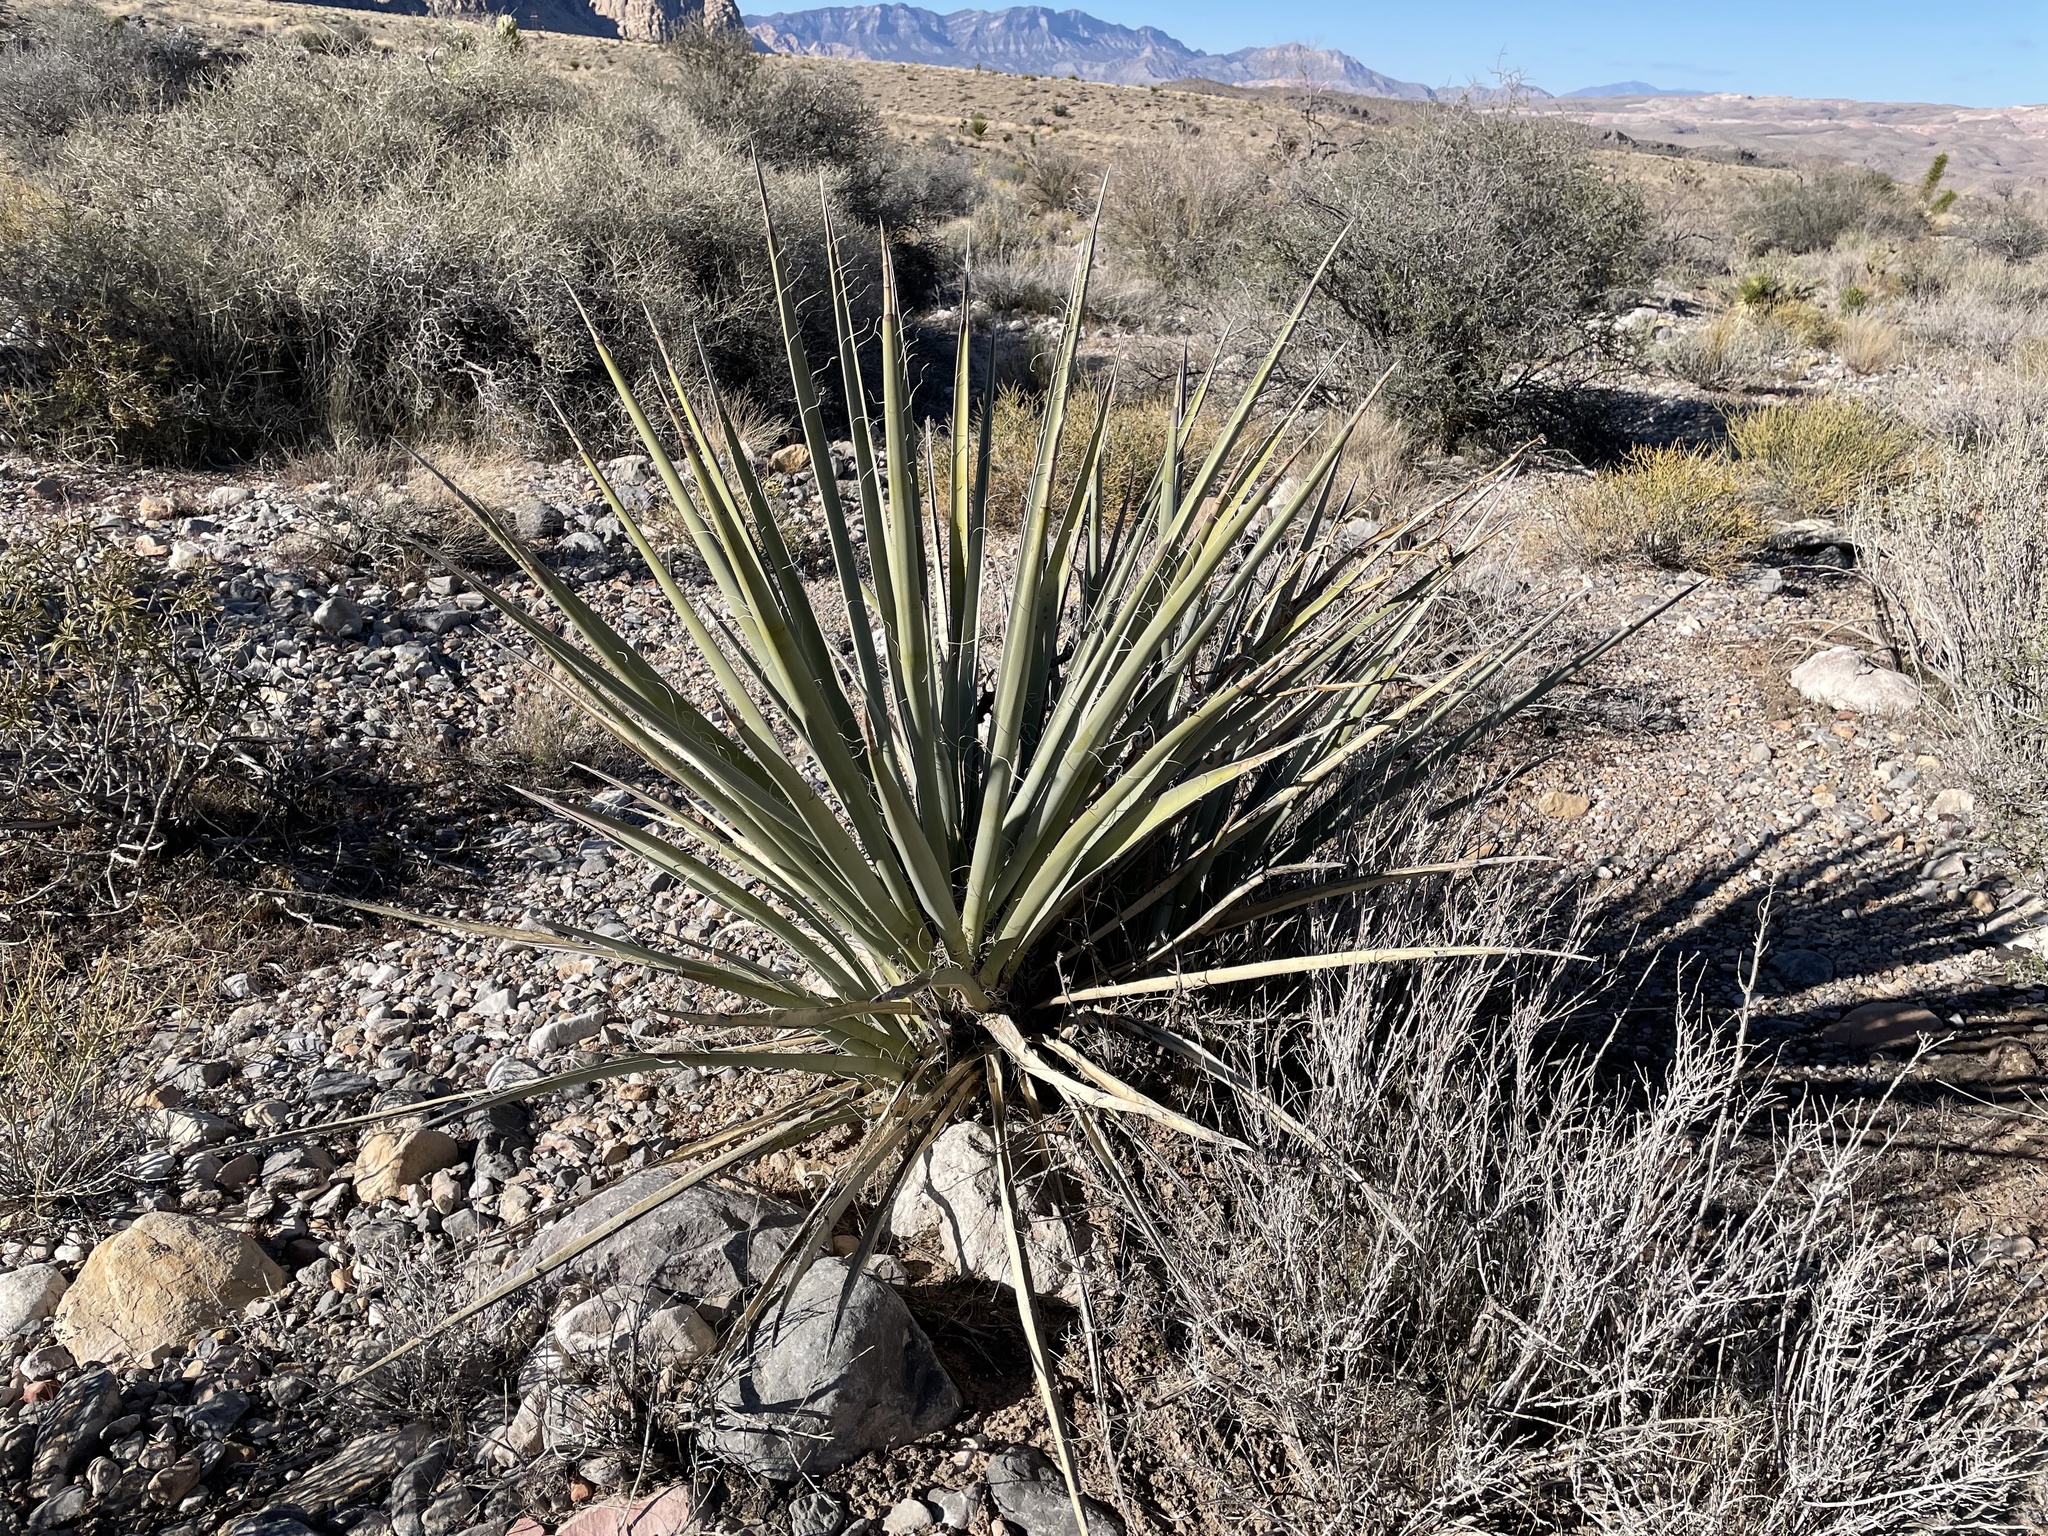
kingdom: Plantae
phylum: Tracheophyta
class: Liliopsida
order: Asparagales
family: Asparagaceae
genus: Yucca
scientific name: Yucca baccata
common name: Banana yucca
